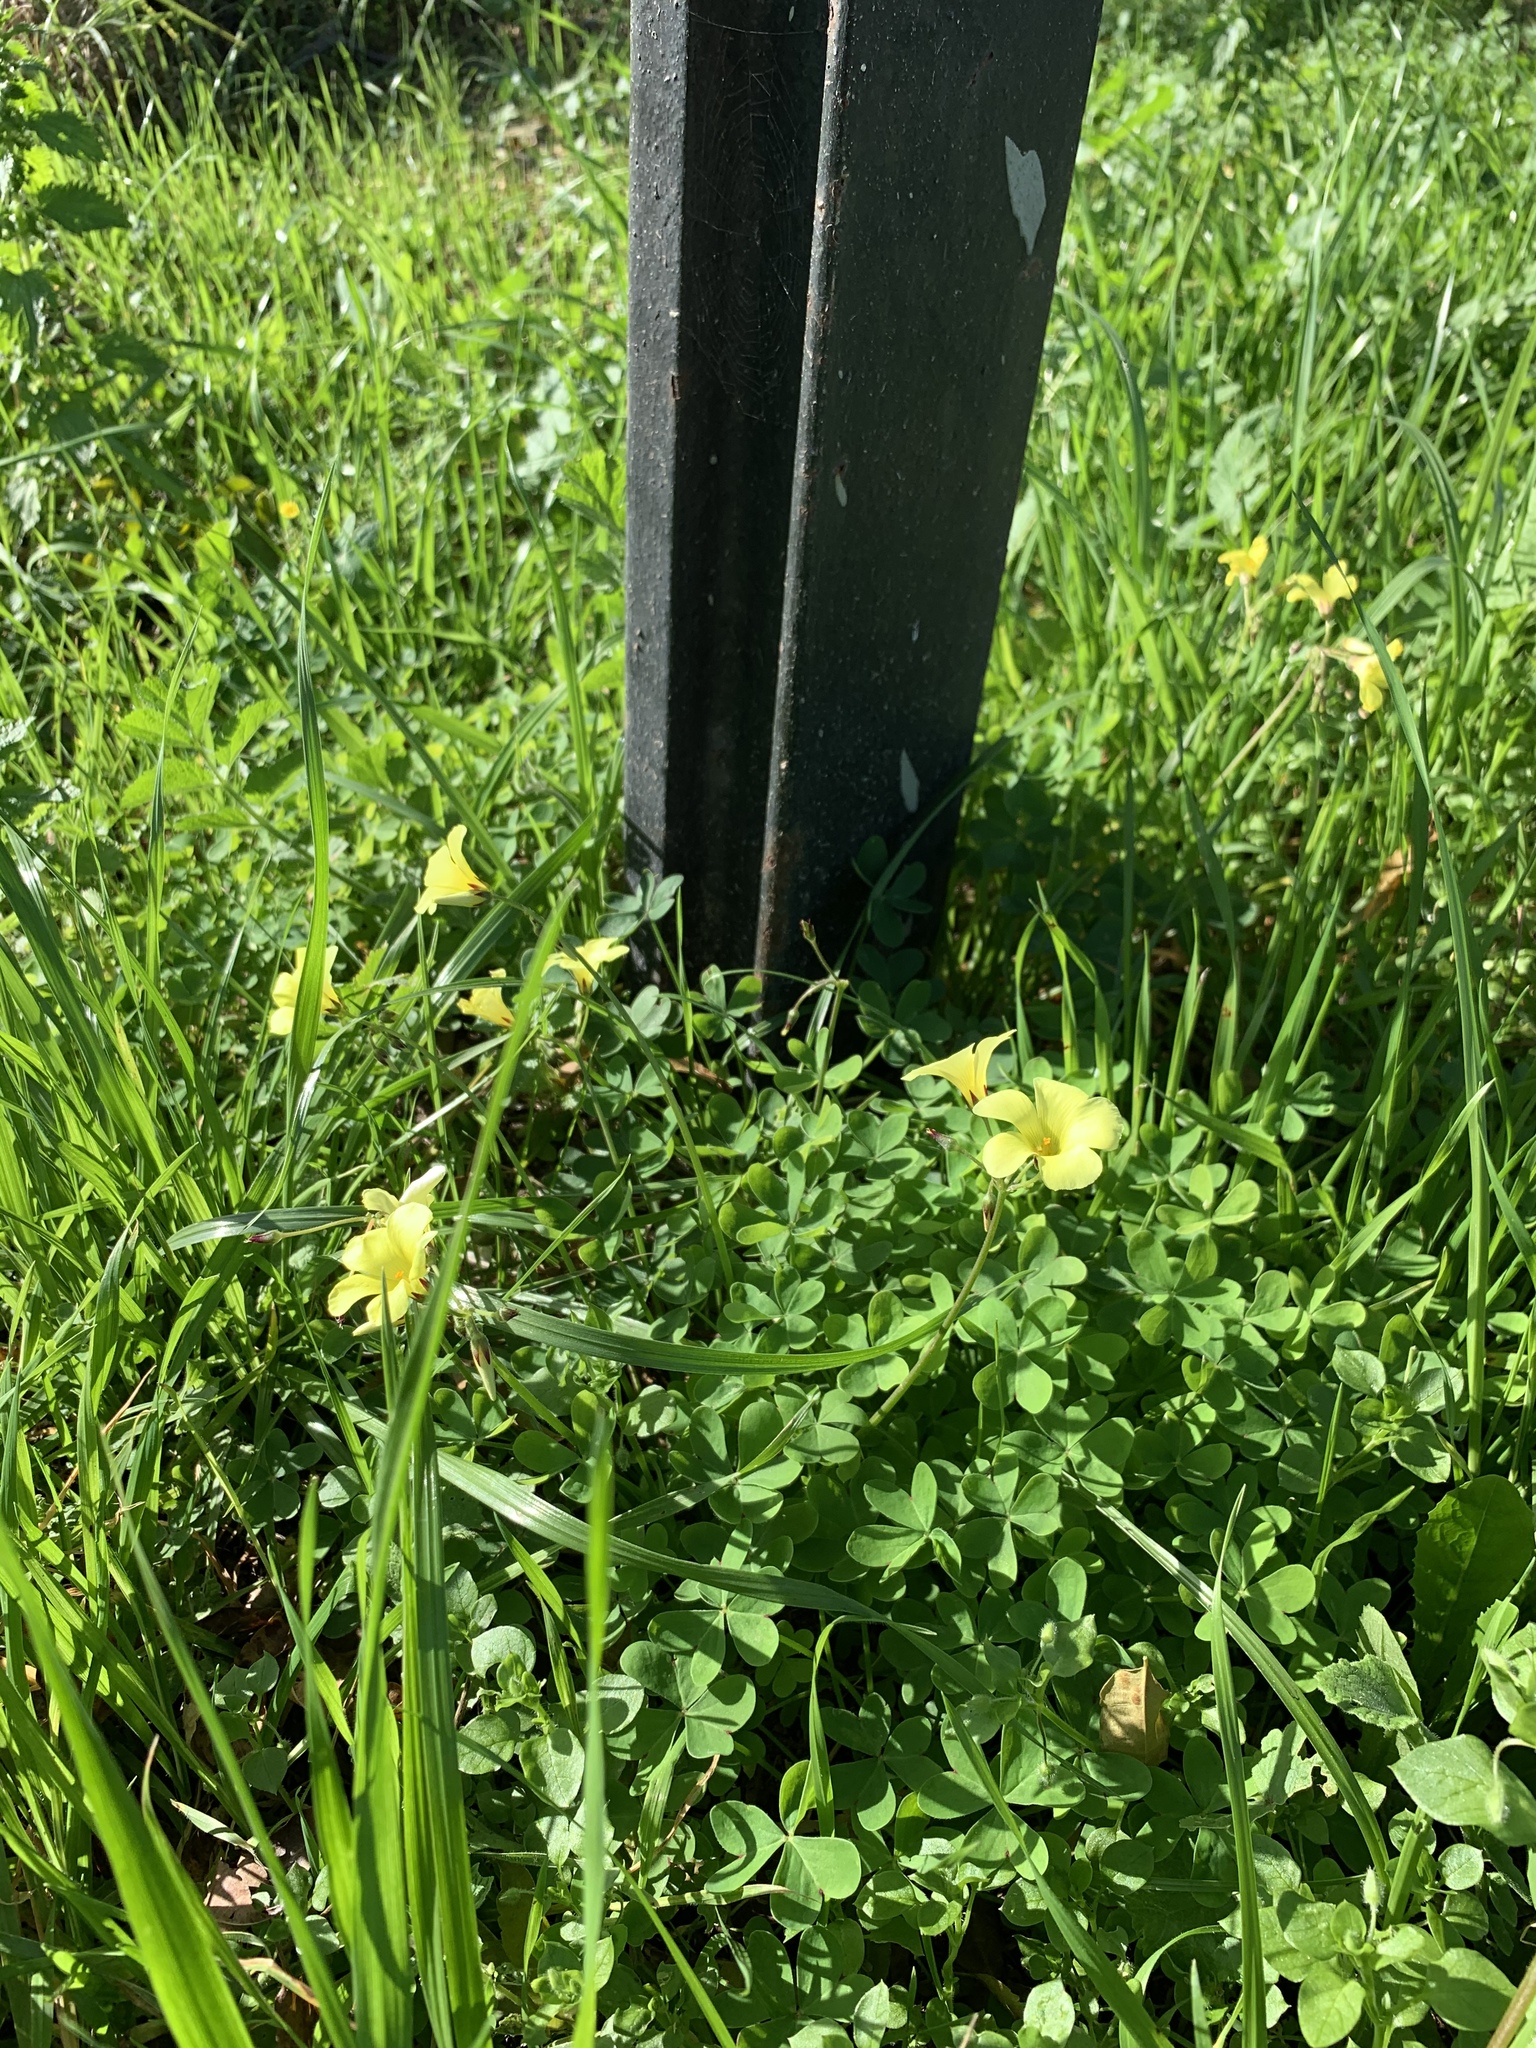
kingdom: Plantae
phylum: Tracheophyta
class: Magnoliopsida
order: Oxalidales
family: Oxalidaceae
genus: Oxalis
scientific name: Oxalis pes-caprae
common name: Bermuda-buttercup
